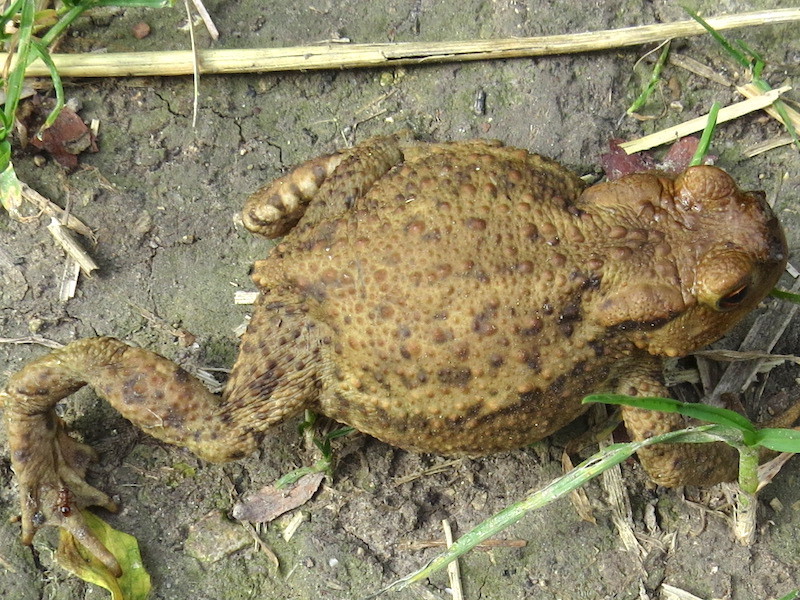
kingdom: Animalia
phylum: Chordata
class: Amphibia
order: Anura
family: Bufonidae
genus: Bufo
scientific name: Bufo bufo
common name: Common toad
